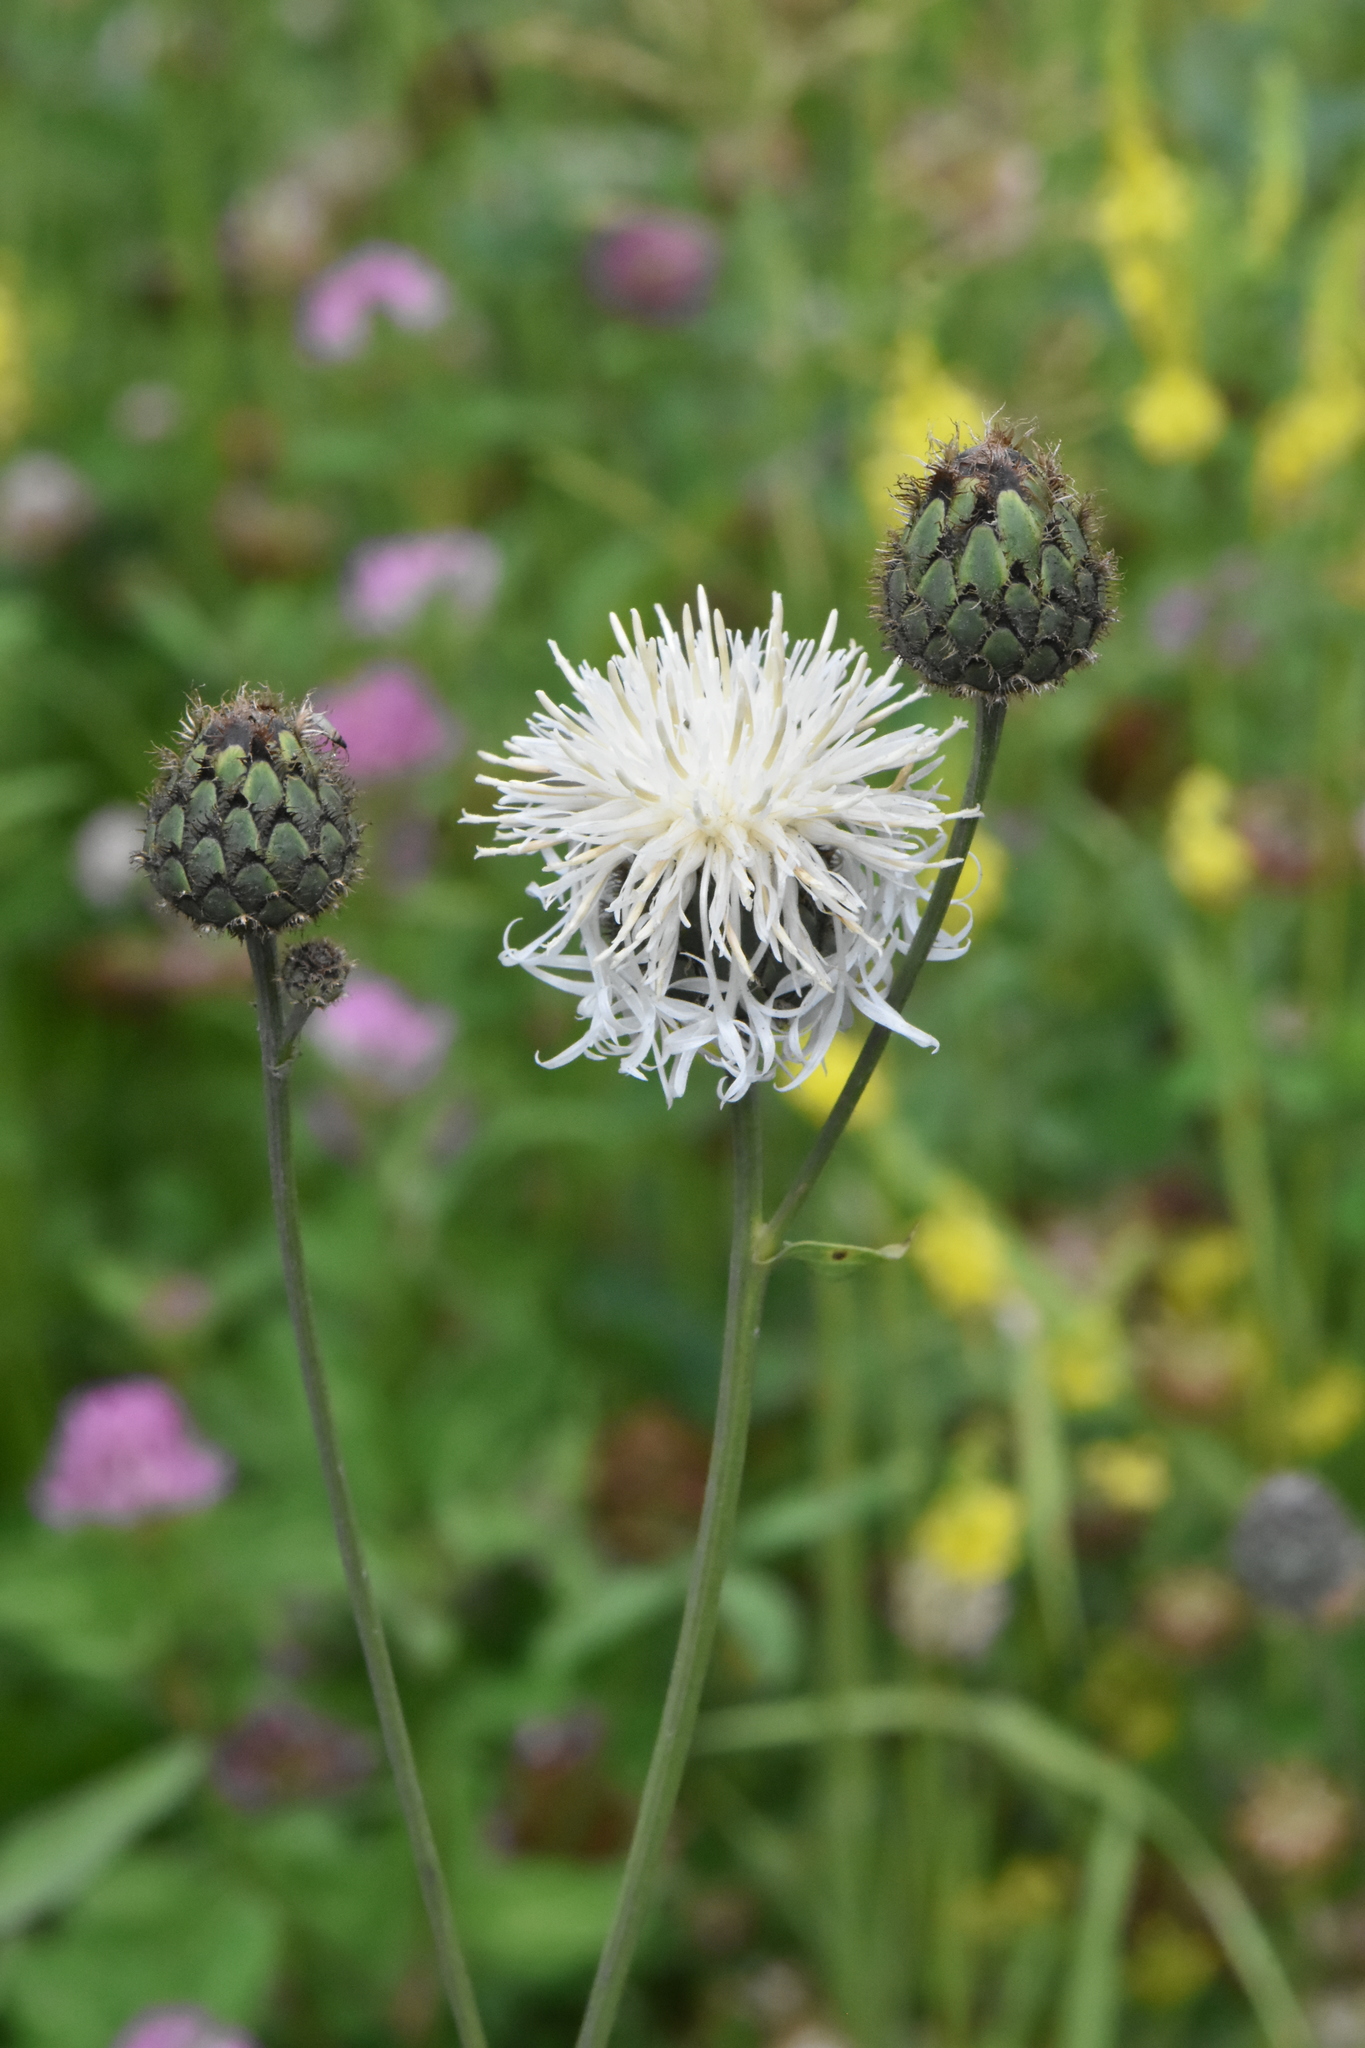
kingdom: Plantae
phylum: Tracheophyta
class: Magnoliopsida
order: Asterales
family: Asteraceae
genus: Centaurea
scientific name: Centaurea scabiosa
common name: Greater knapweed
